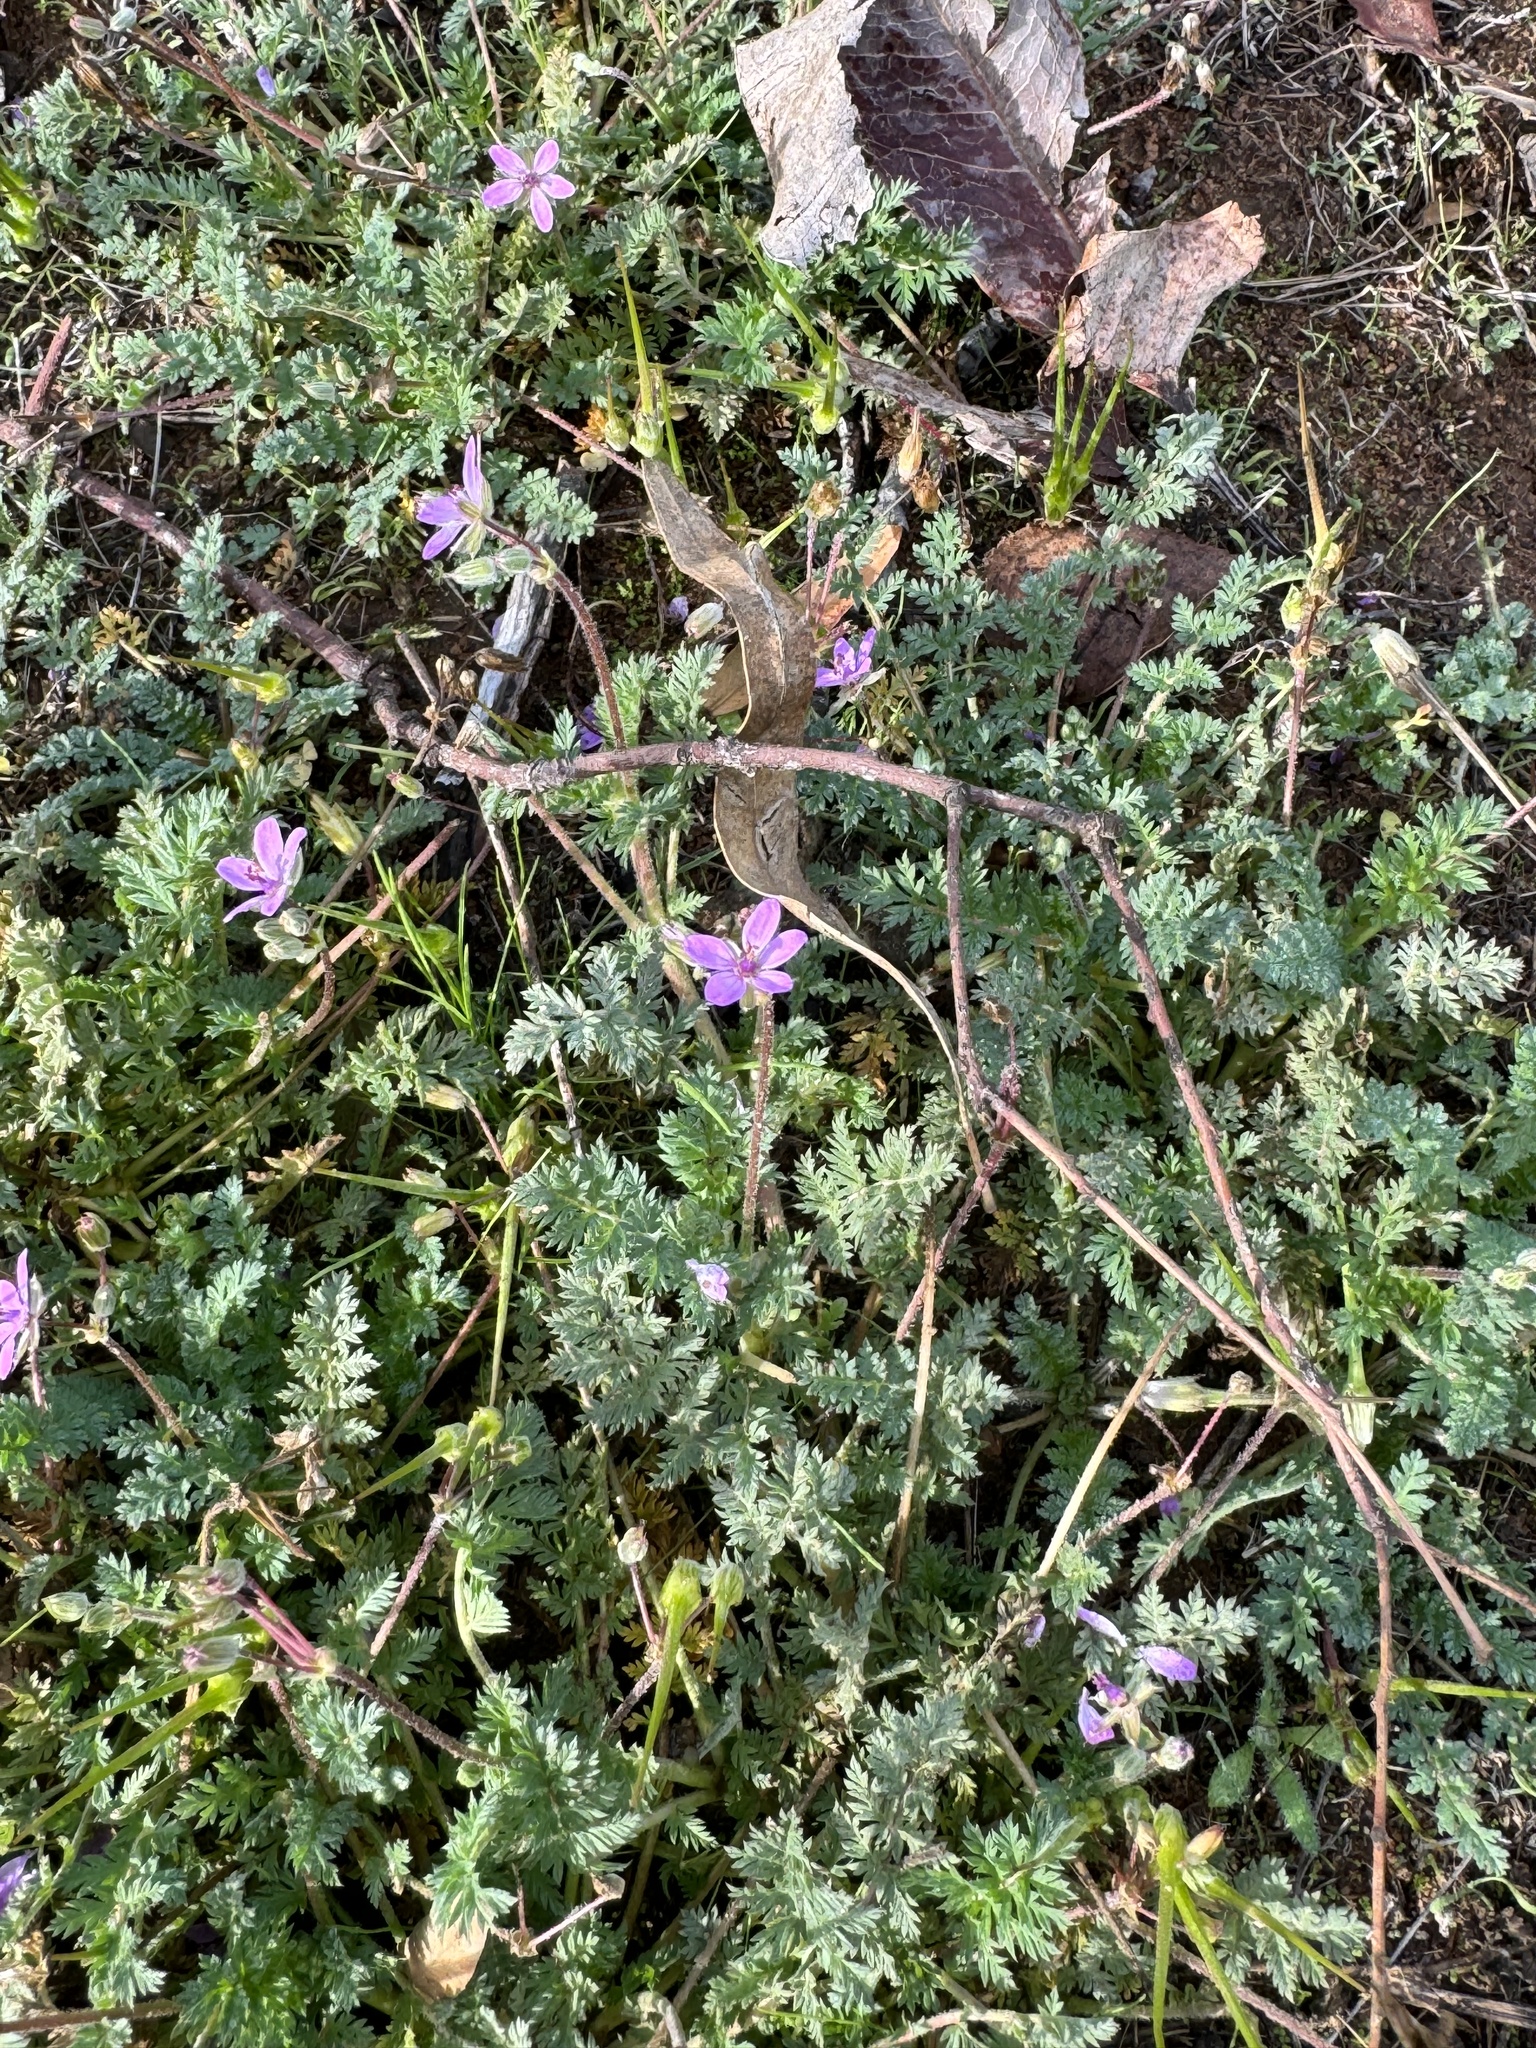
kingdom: Plantae
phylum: Tracheophyta
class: Magnoliopsida
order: Geraniales
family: Geraniaceae
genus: Erodium
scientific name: Erodium cicutarium
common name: Common stork's-bill
